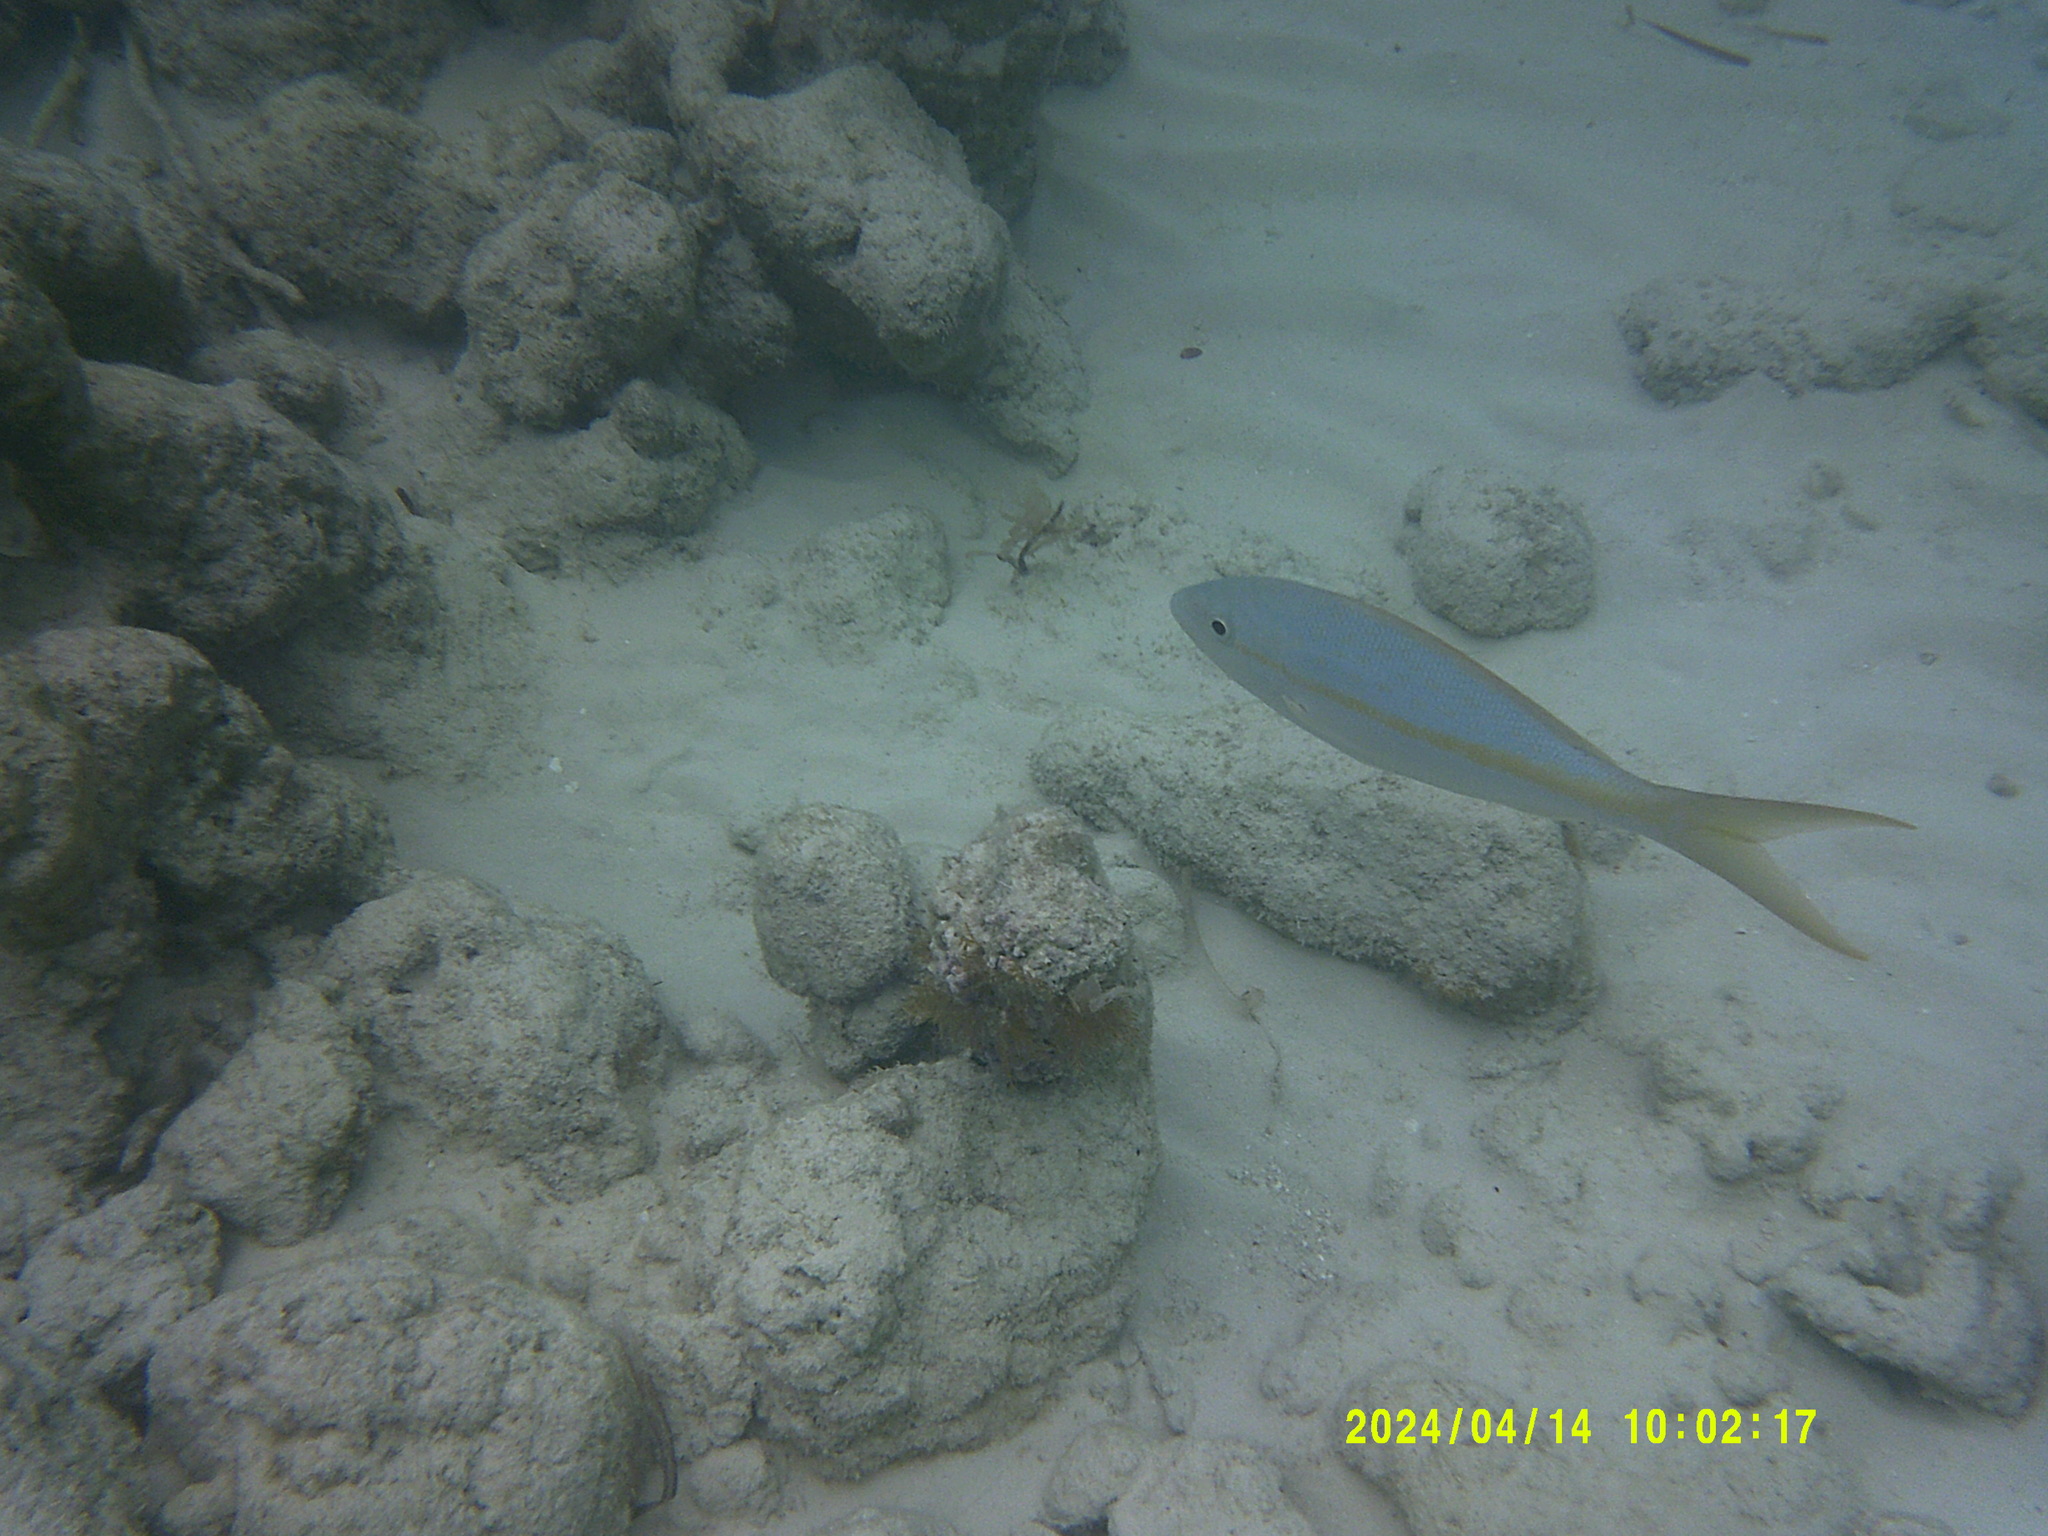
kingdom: Animalia
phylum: Chordata
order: Perciformes
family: Lutjanidae
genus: Ocyurus
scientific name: Ocyurus chrysurus
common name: Yellowtail snapper
